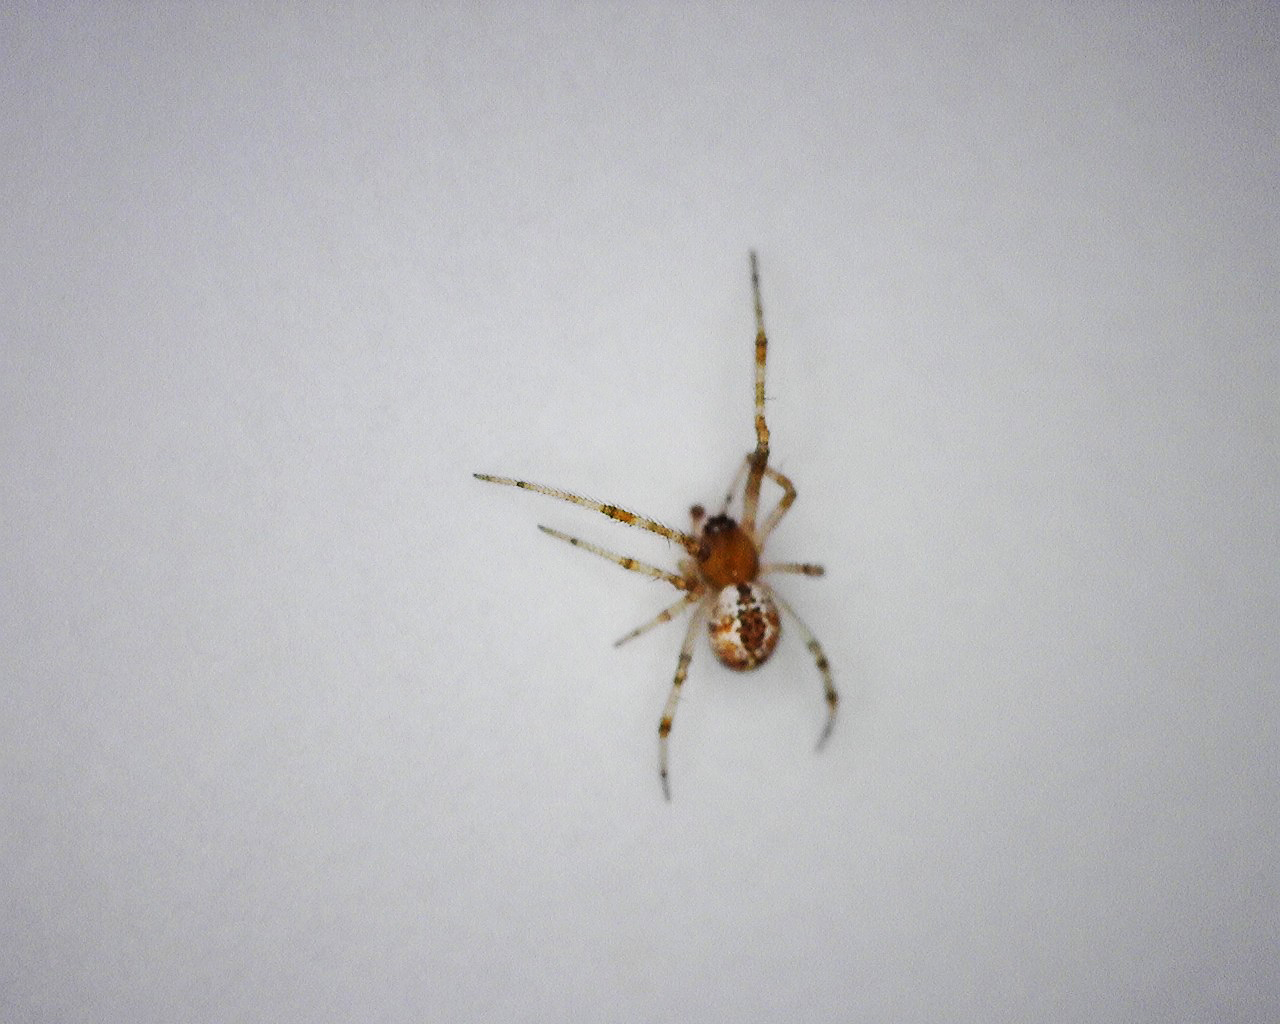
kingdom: Animalia
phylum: Arthropoda
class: Arachnida
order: Araneae
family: Theridiidae
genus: Cryptachaea
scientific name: Cryptachaea veruculata
